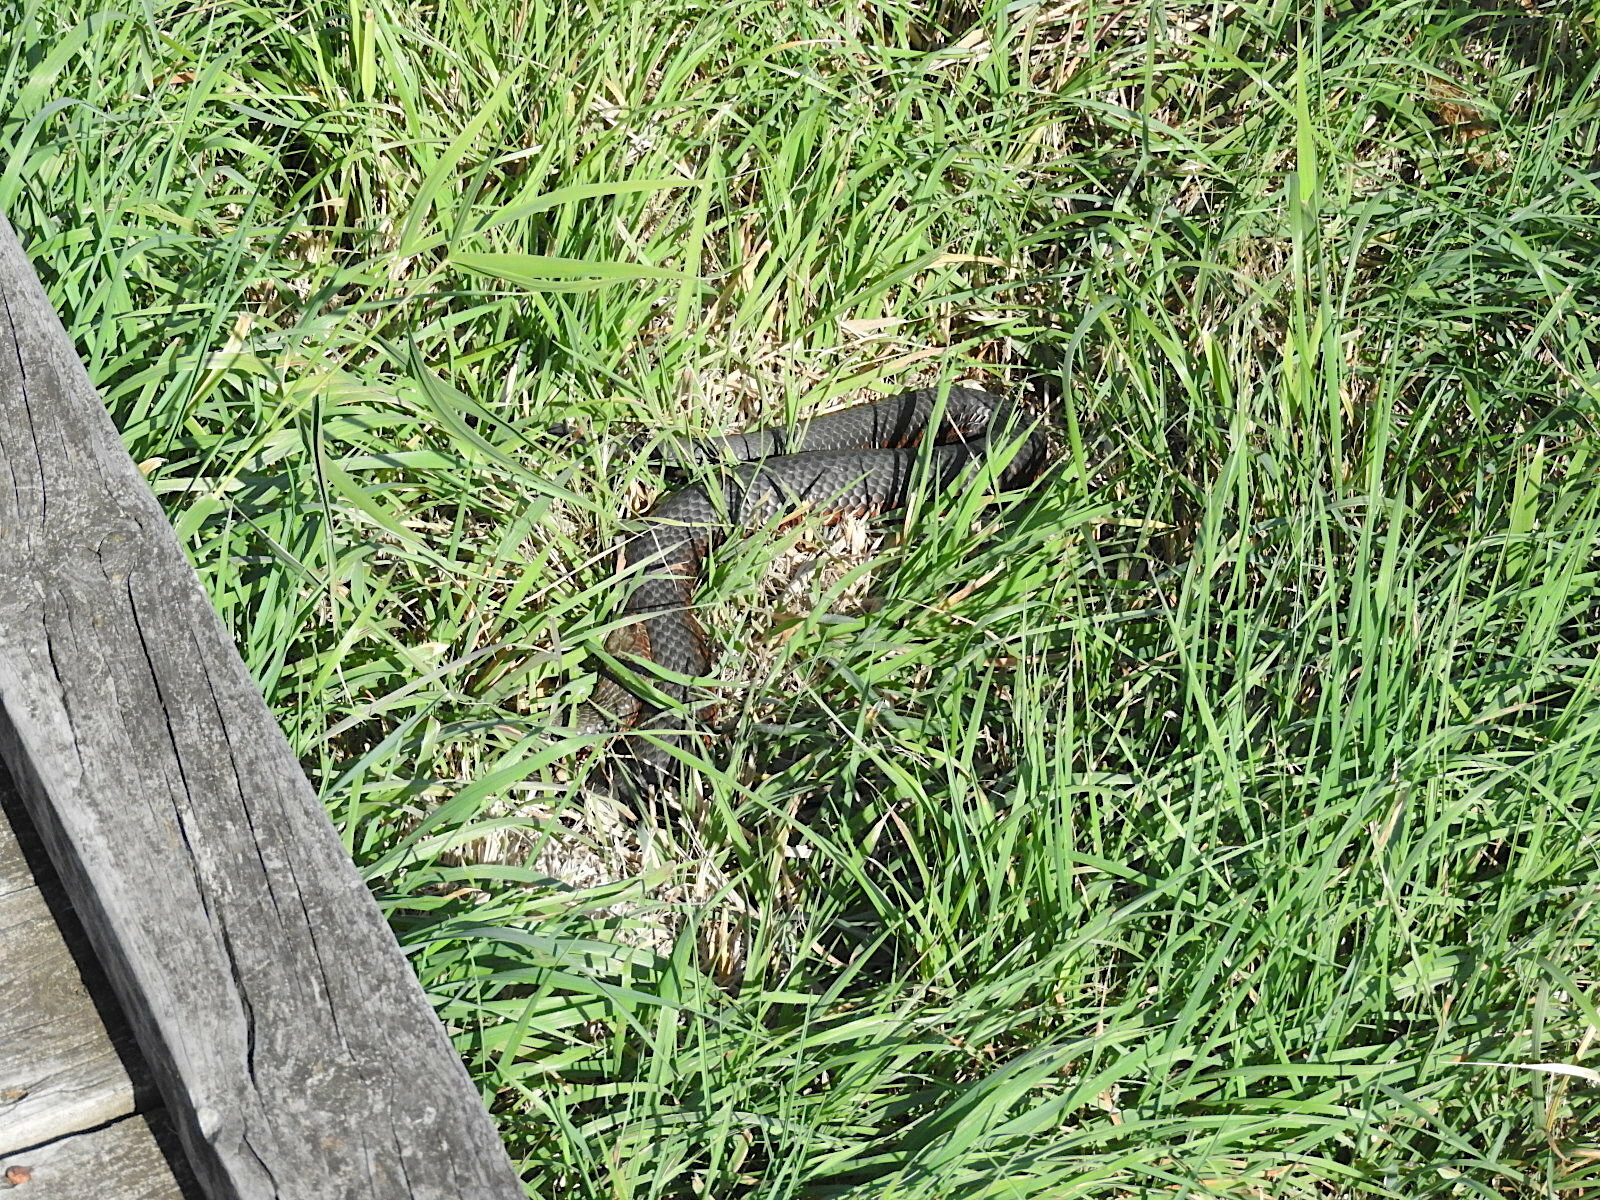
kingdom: Animalia
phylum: Chordata
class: Squamata
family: Elapidae
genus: Austrelaps
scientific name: Austrelaps superbus
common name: Copperhead snake
